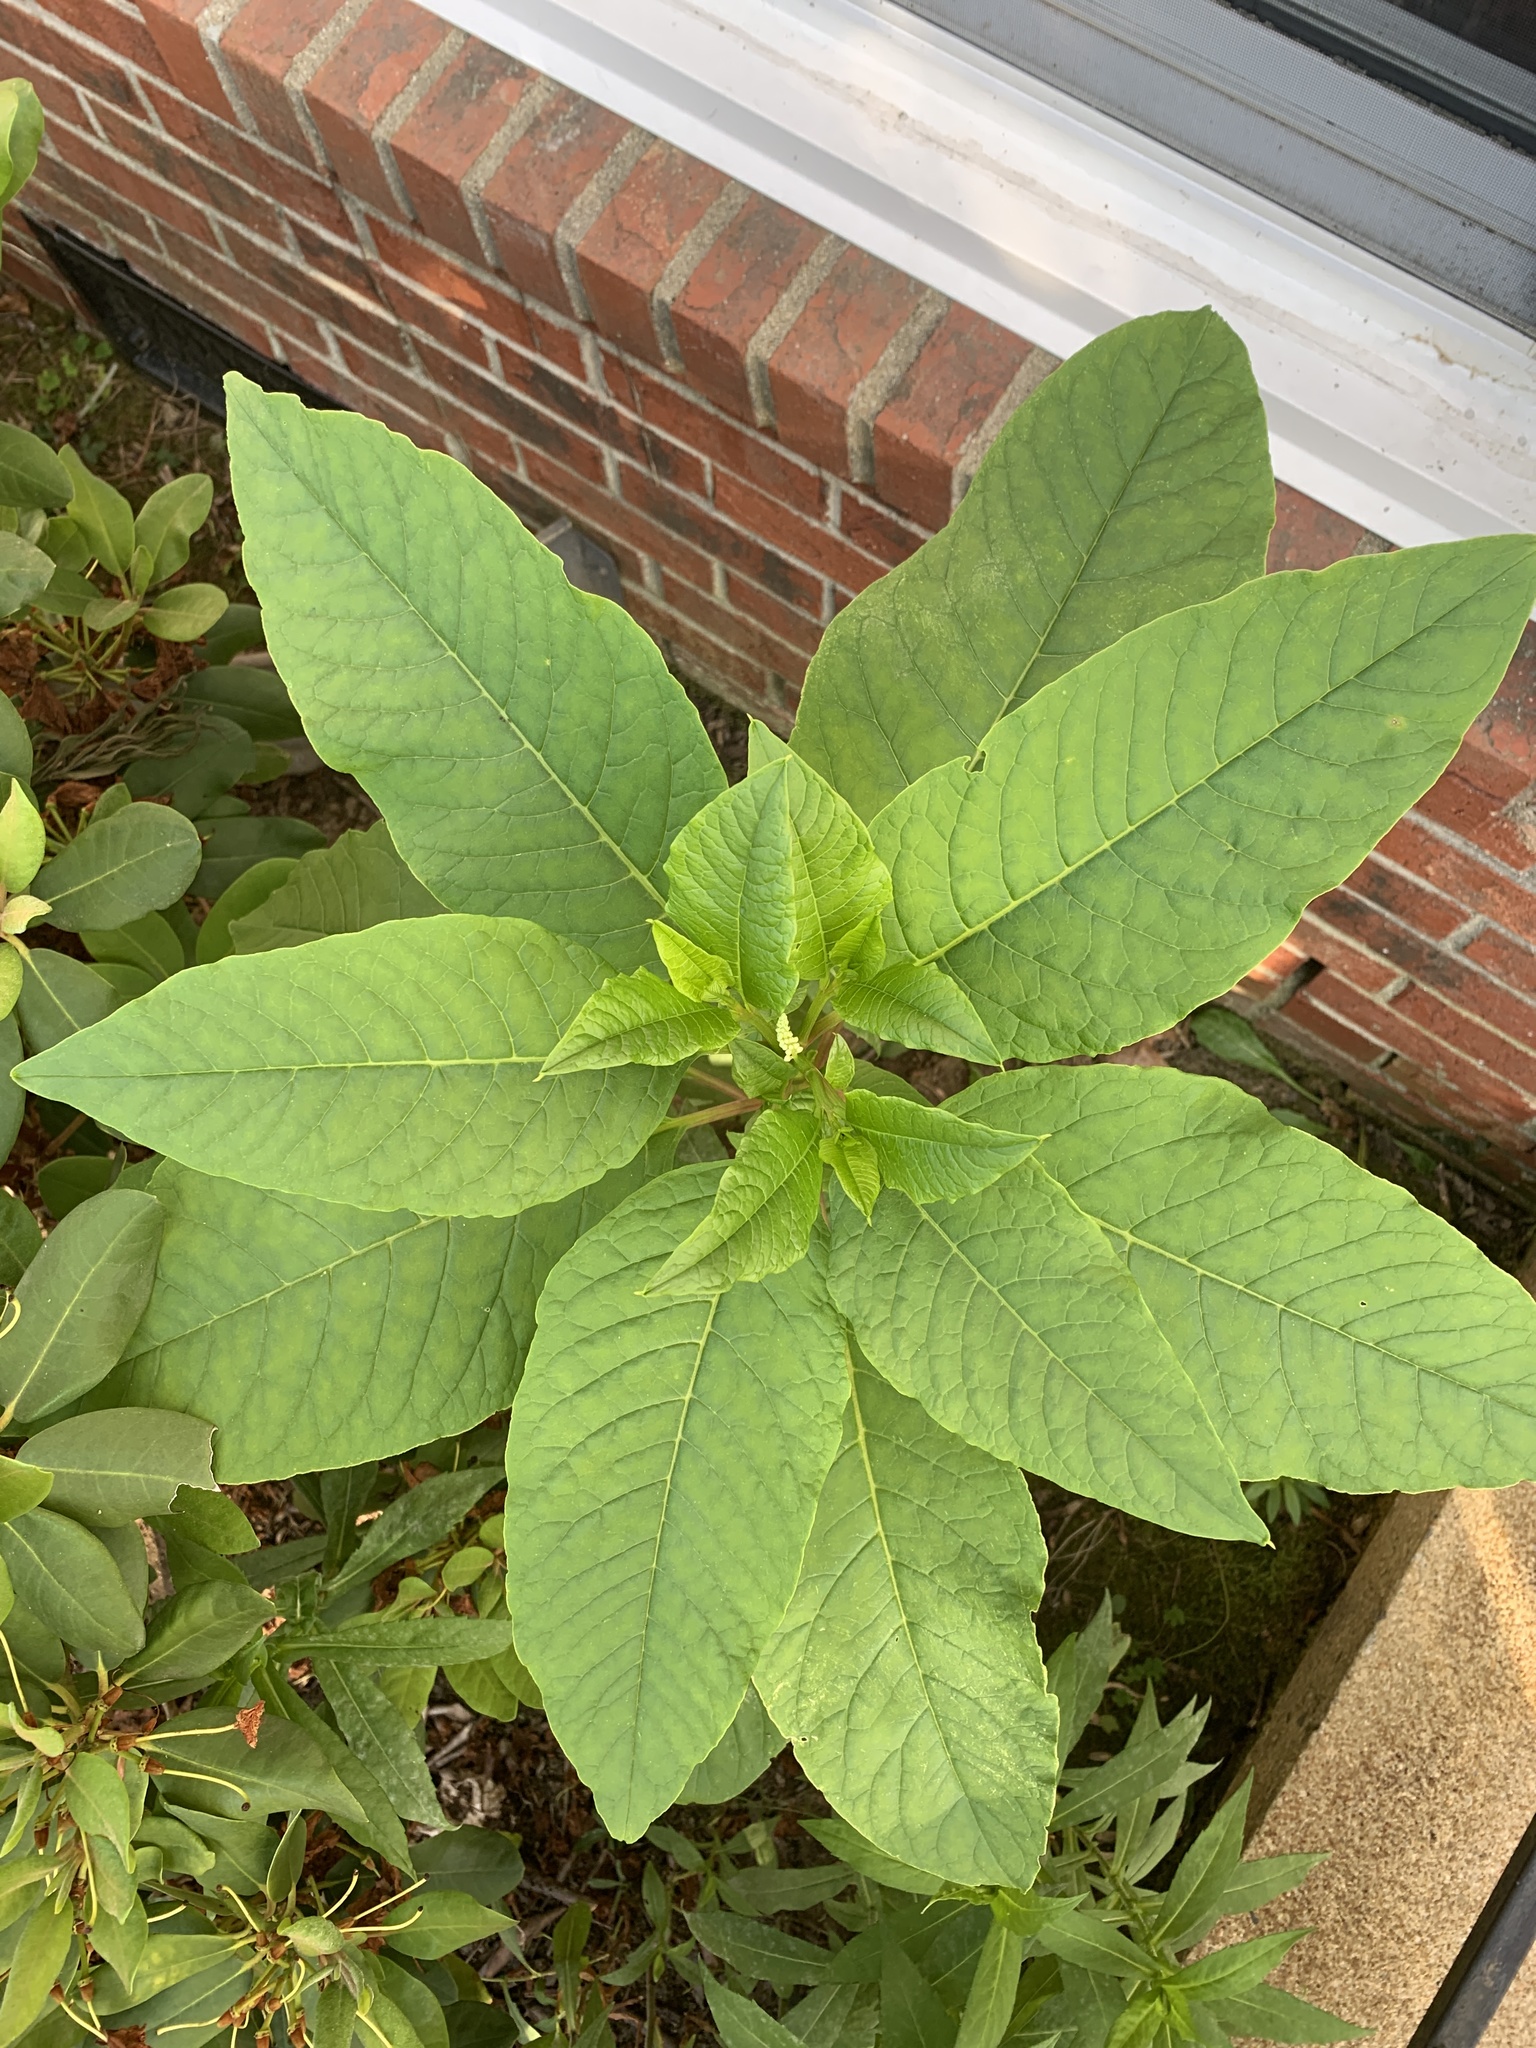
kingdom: Plantae
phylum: Tracheophyta
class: Magnoliopsida
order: Caryophyllales
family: Phytolaccaceae
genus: Phytolacca
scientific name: Phytolacca americana
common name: American pokeweed
